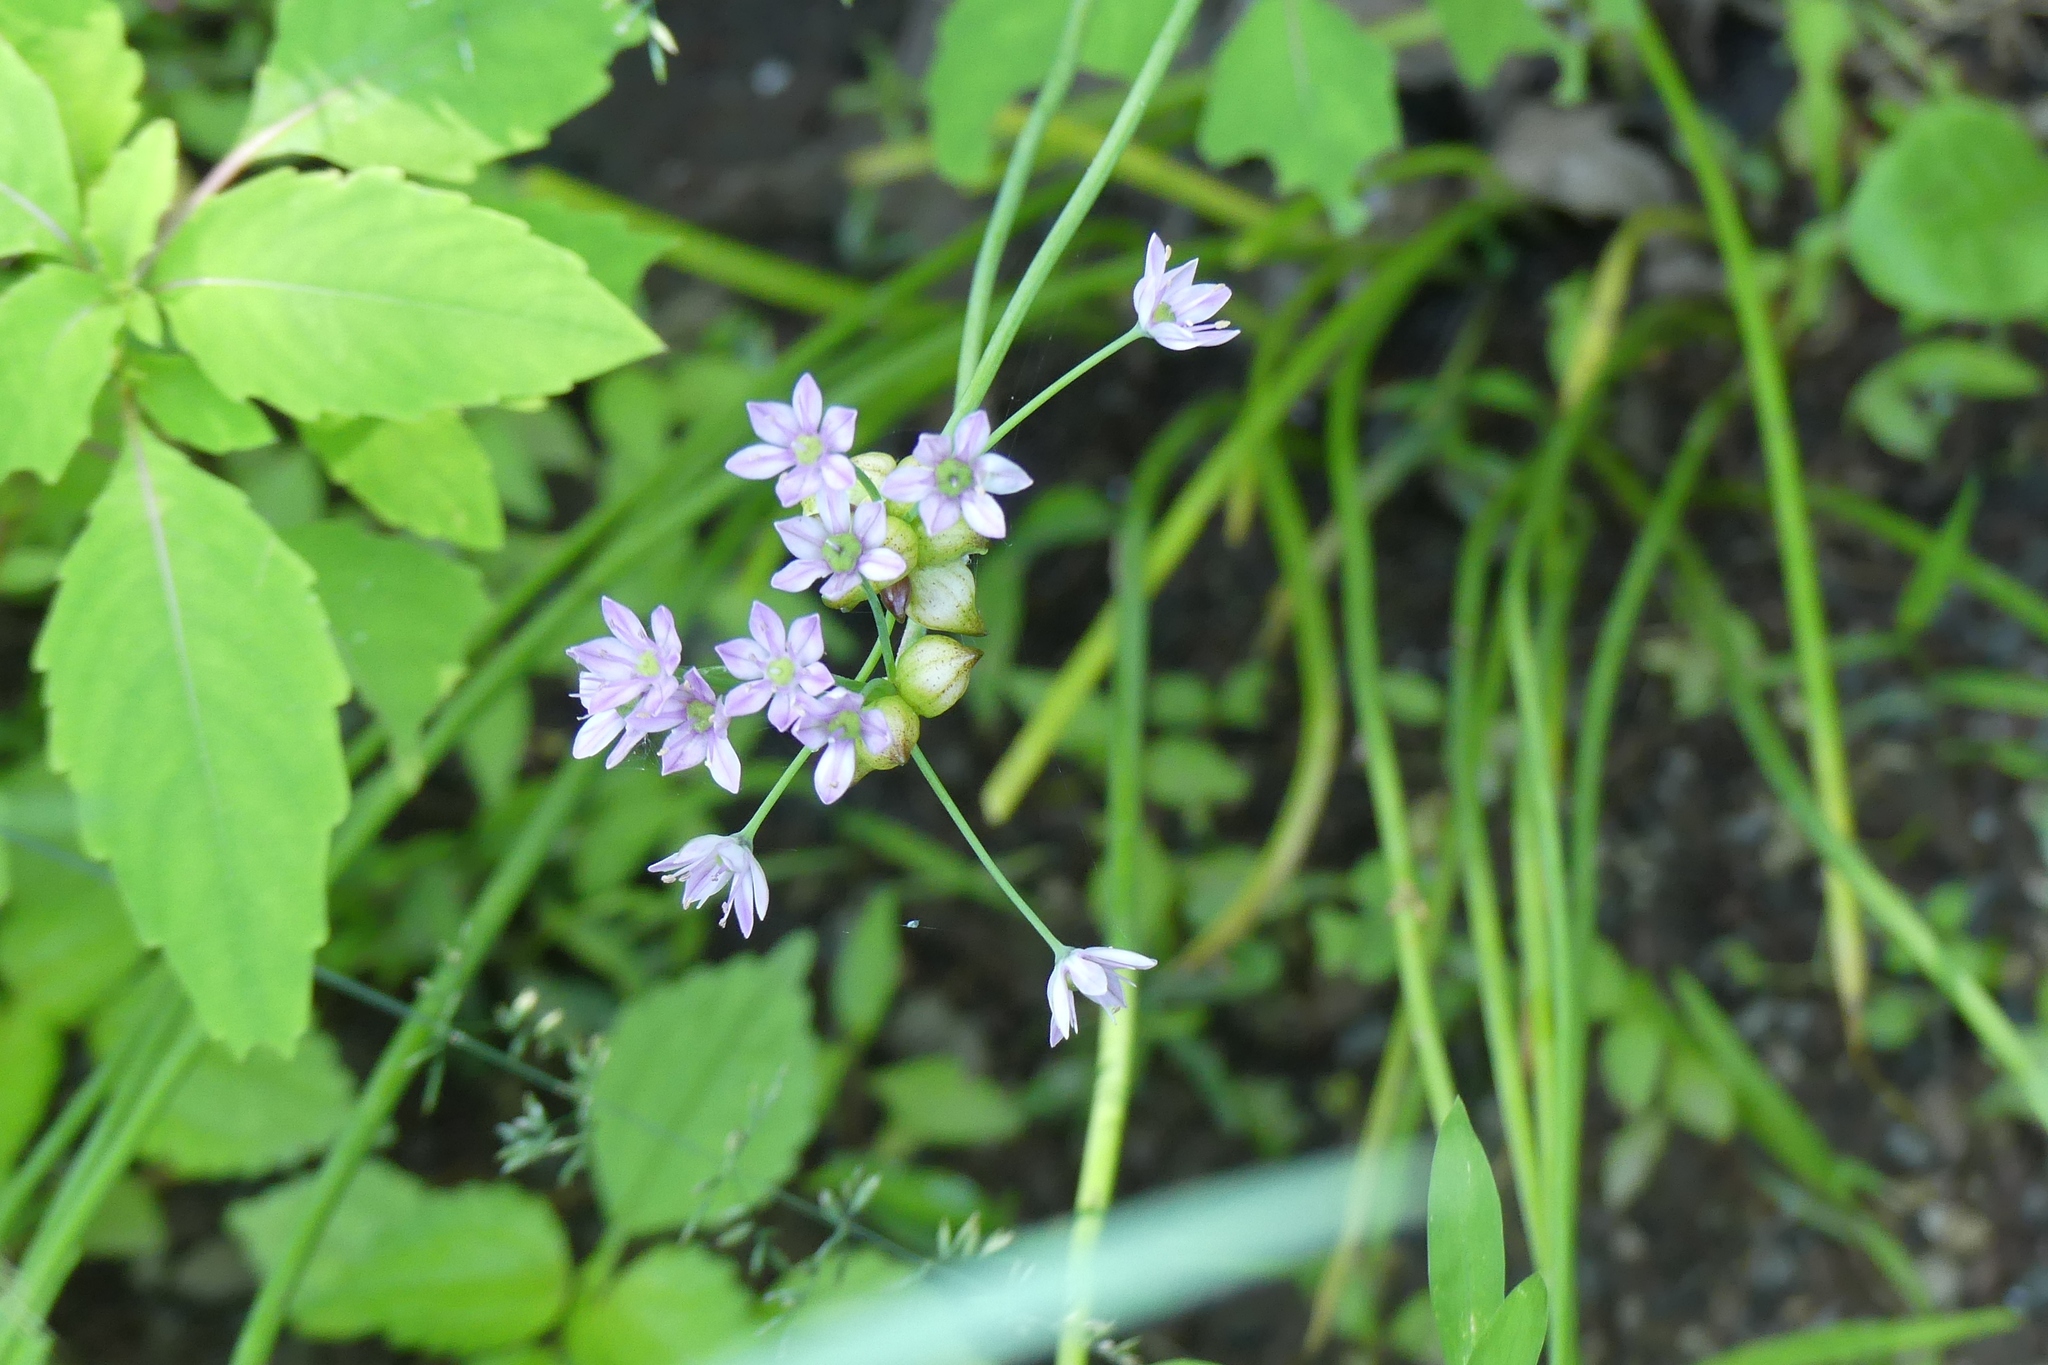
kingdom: Plantae
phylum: Tracheophyta
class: Liliopsida
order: Asparagales
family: Amaryllidaceae
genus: Allium
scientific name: Allium canadense
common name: Meadow garlic
